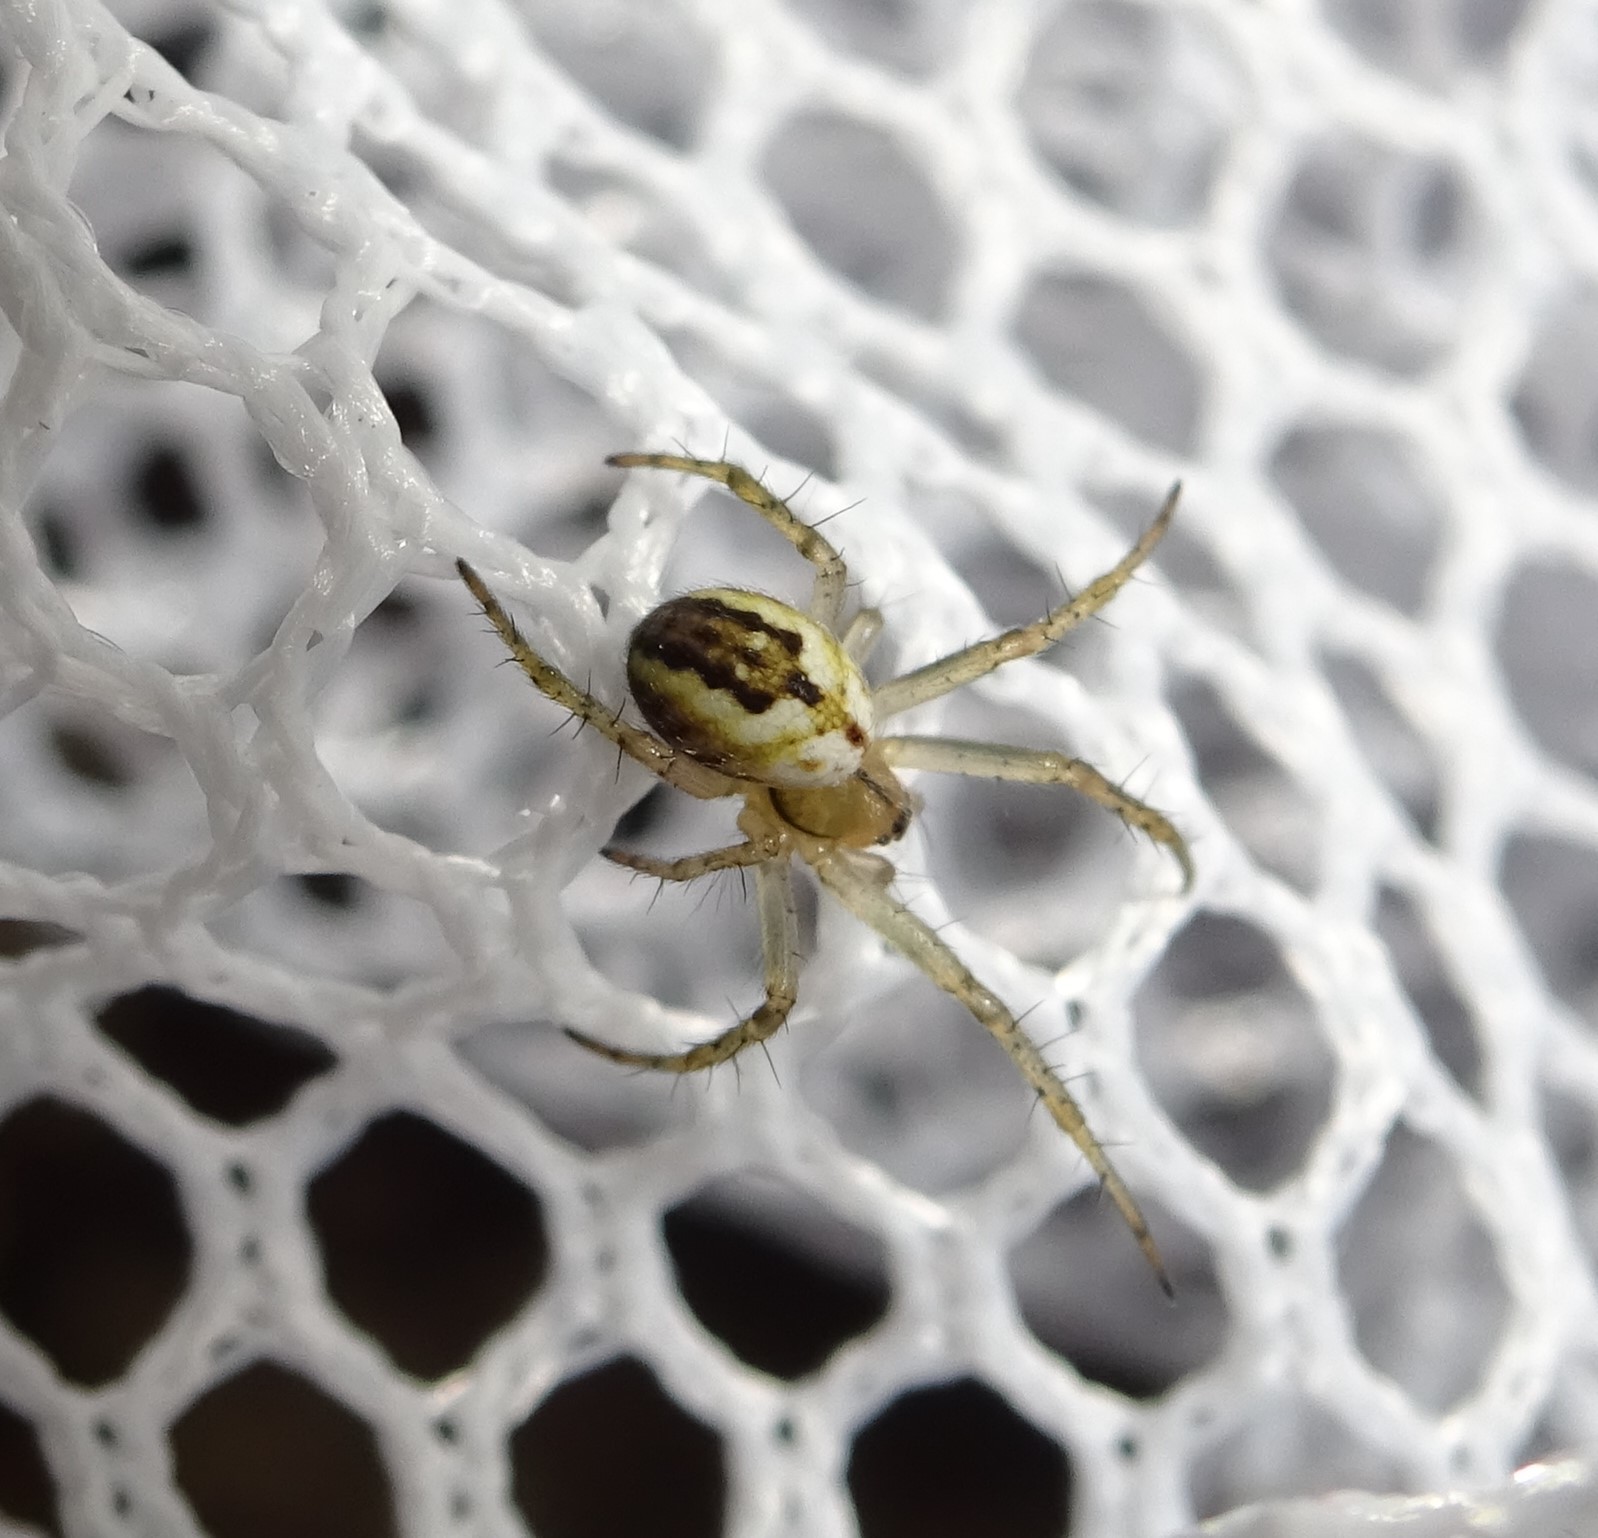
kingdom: Animalia
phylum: Arthropoda
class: Arachnida
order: Araneae
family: Araneidae
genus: Mangora
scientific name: Mangora acalypha
